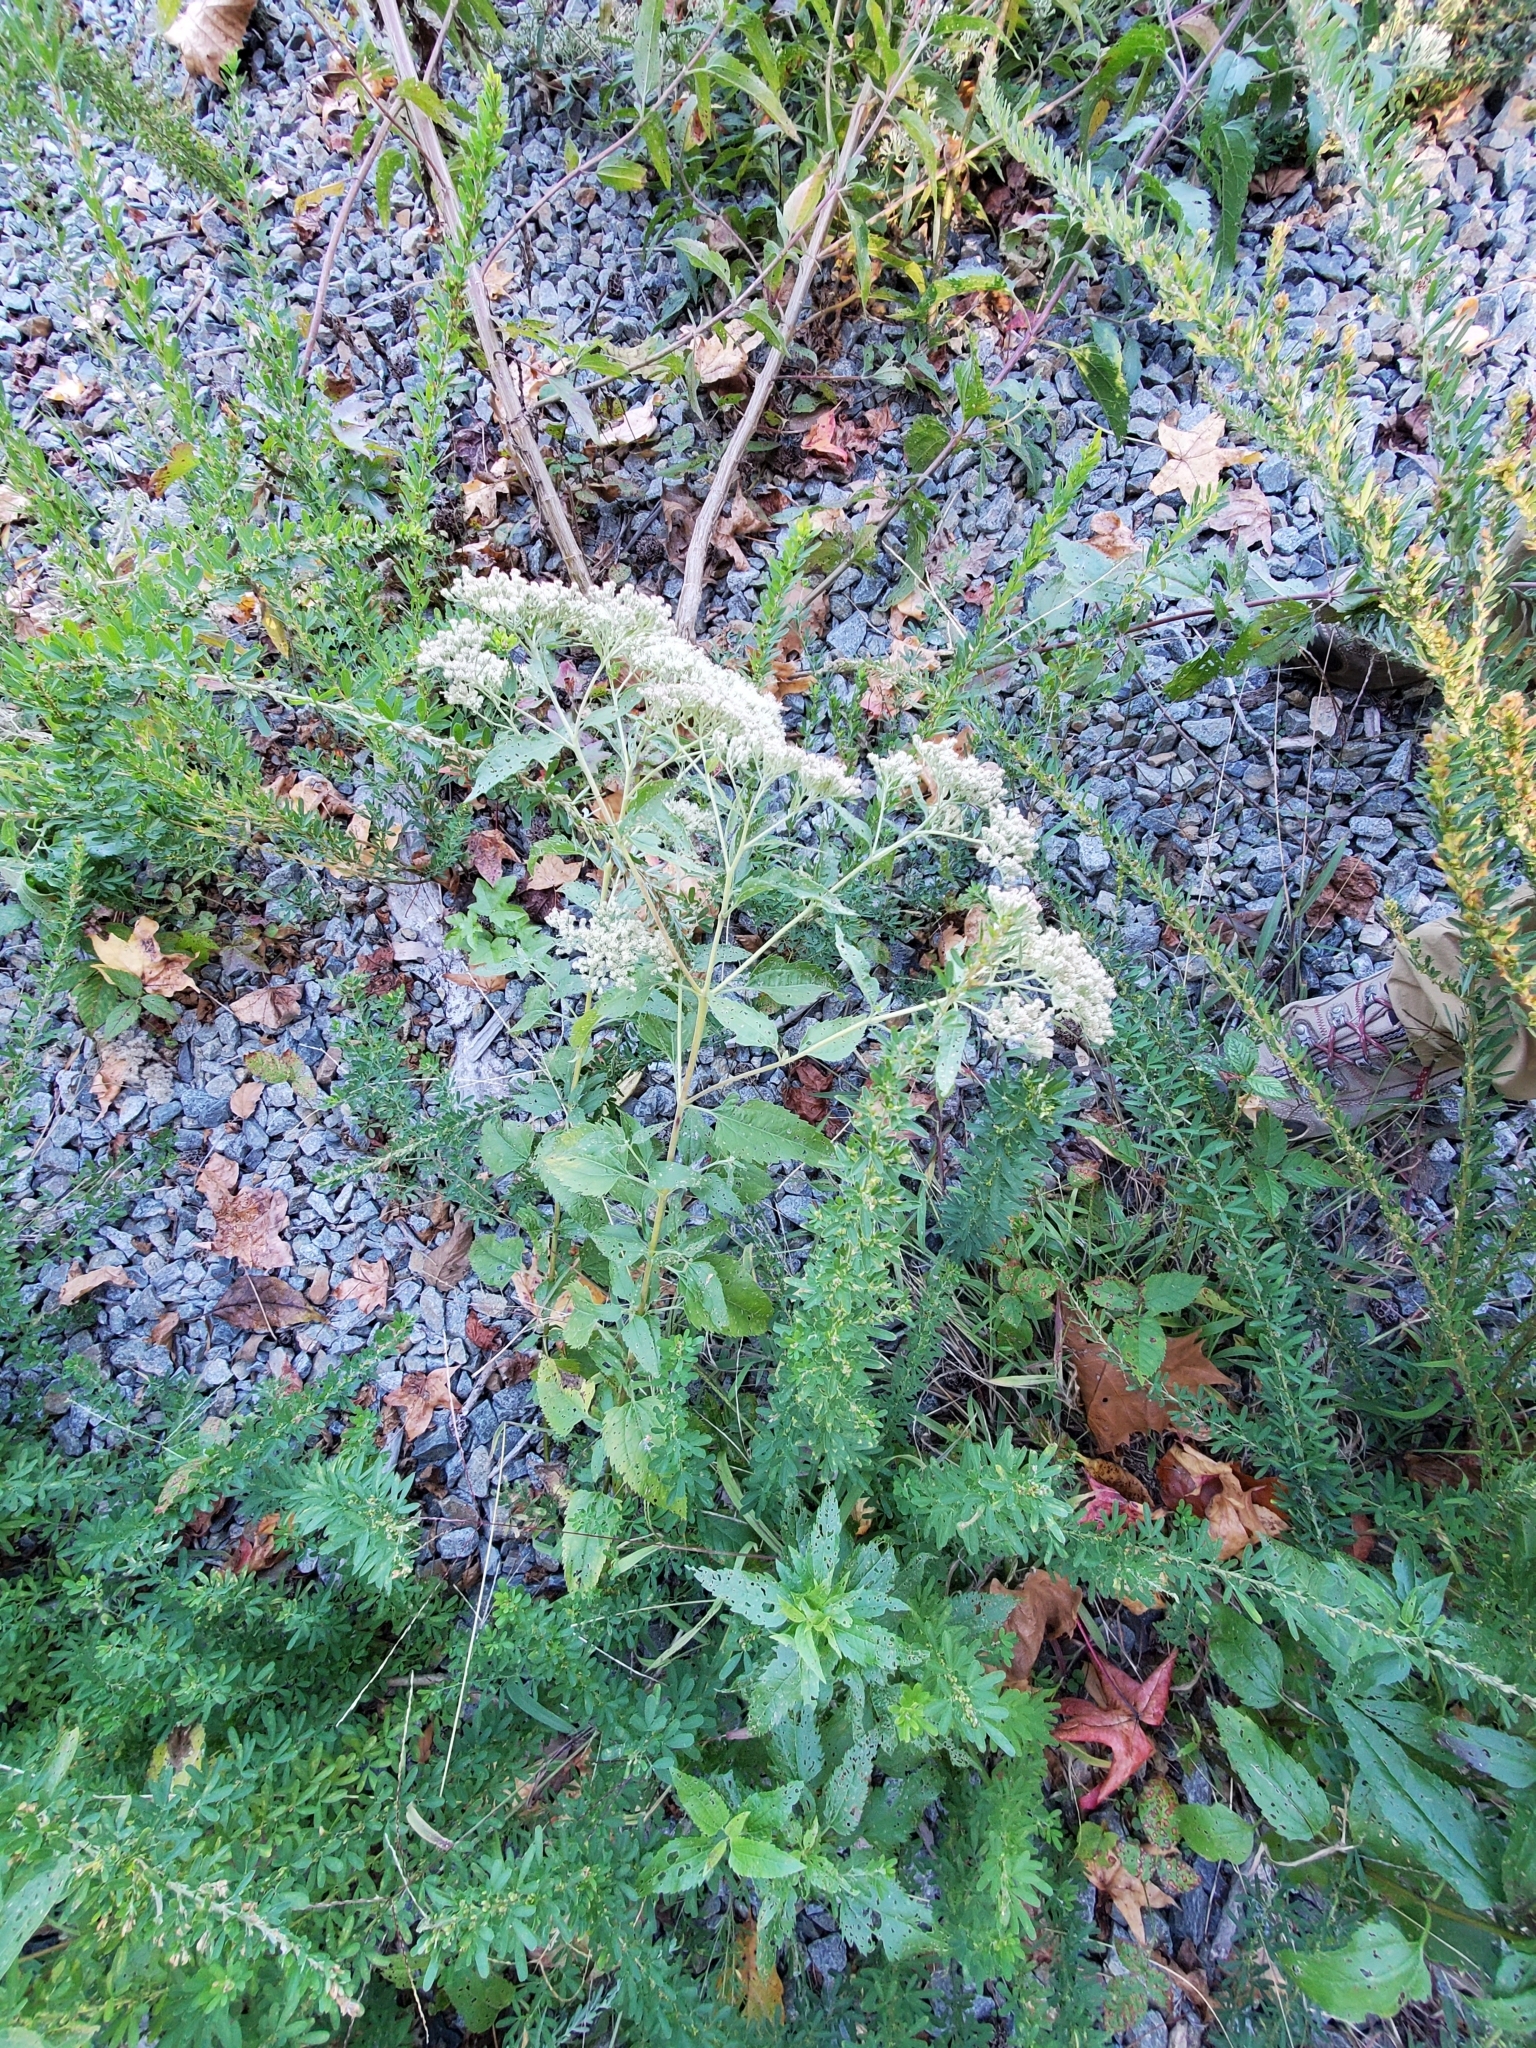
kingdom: Plantae
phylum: Tracheophyta
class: Magnoliopsida
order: Asterales
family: Asteraceae
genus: Eupatorium
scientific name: Eupatorium serotinum
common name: Late boneset
